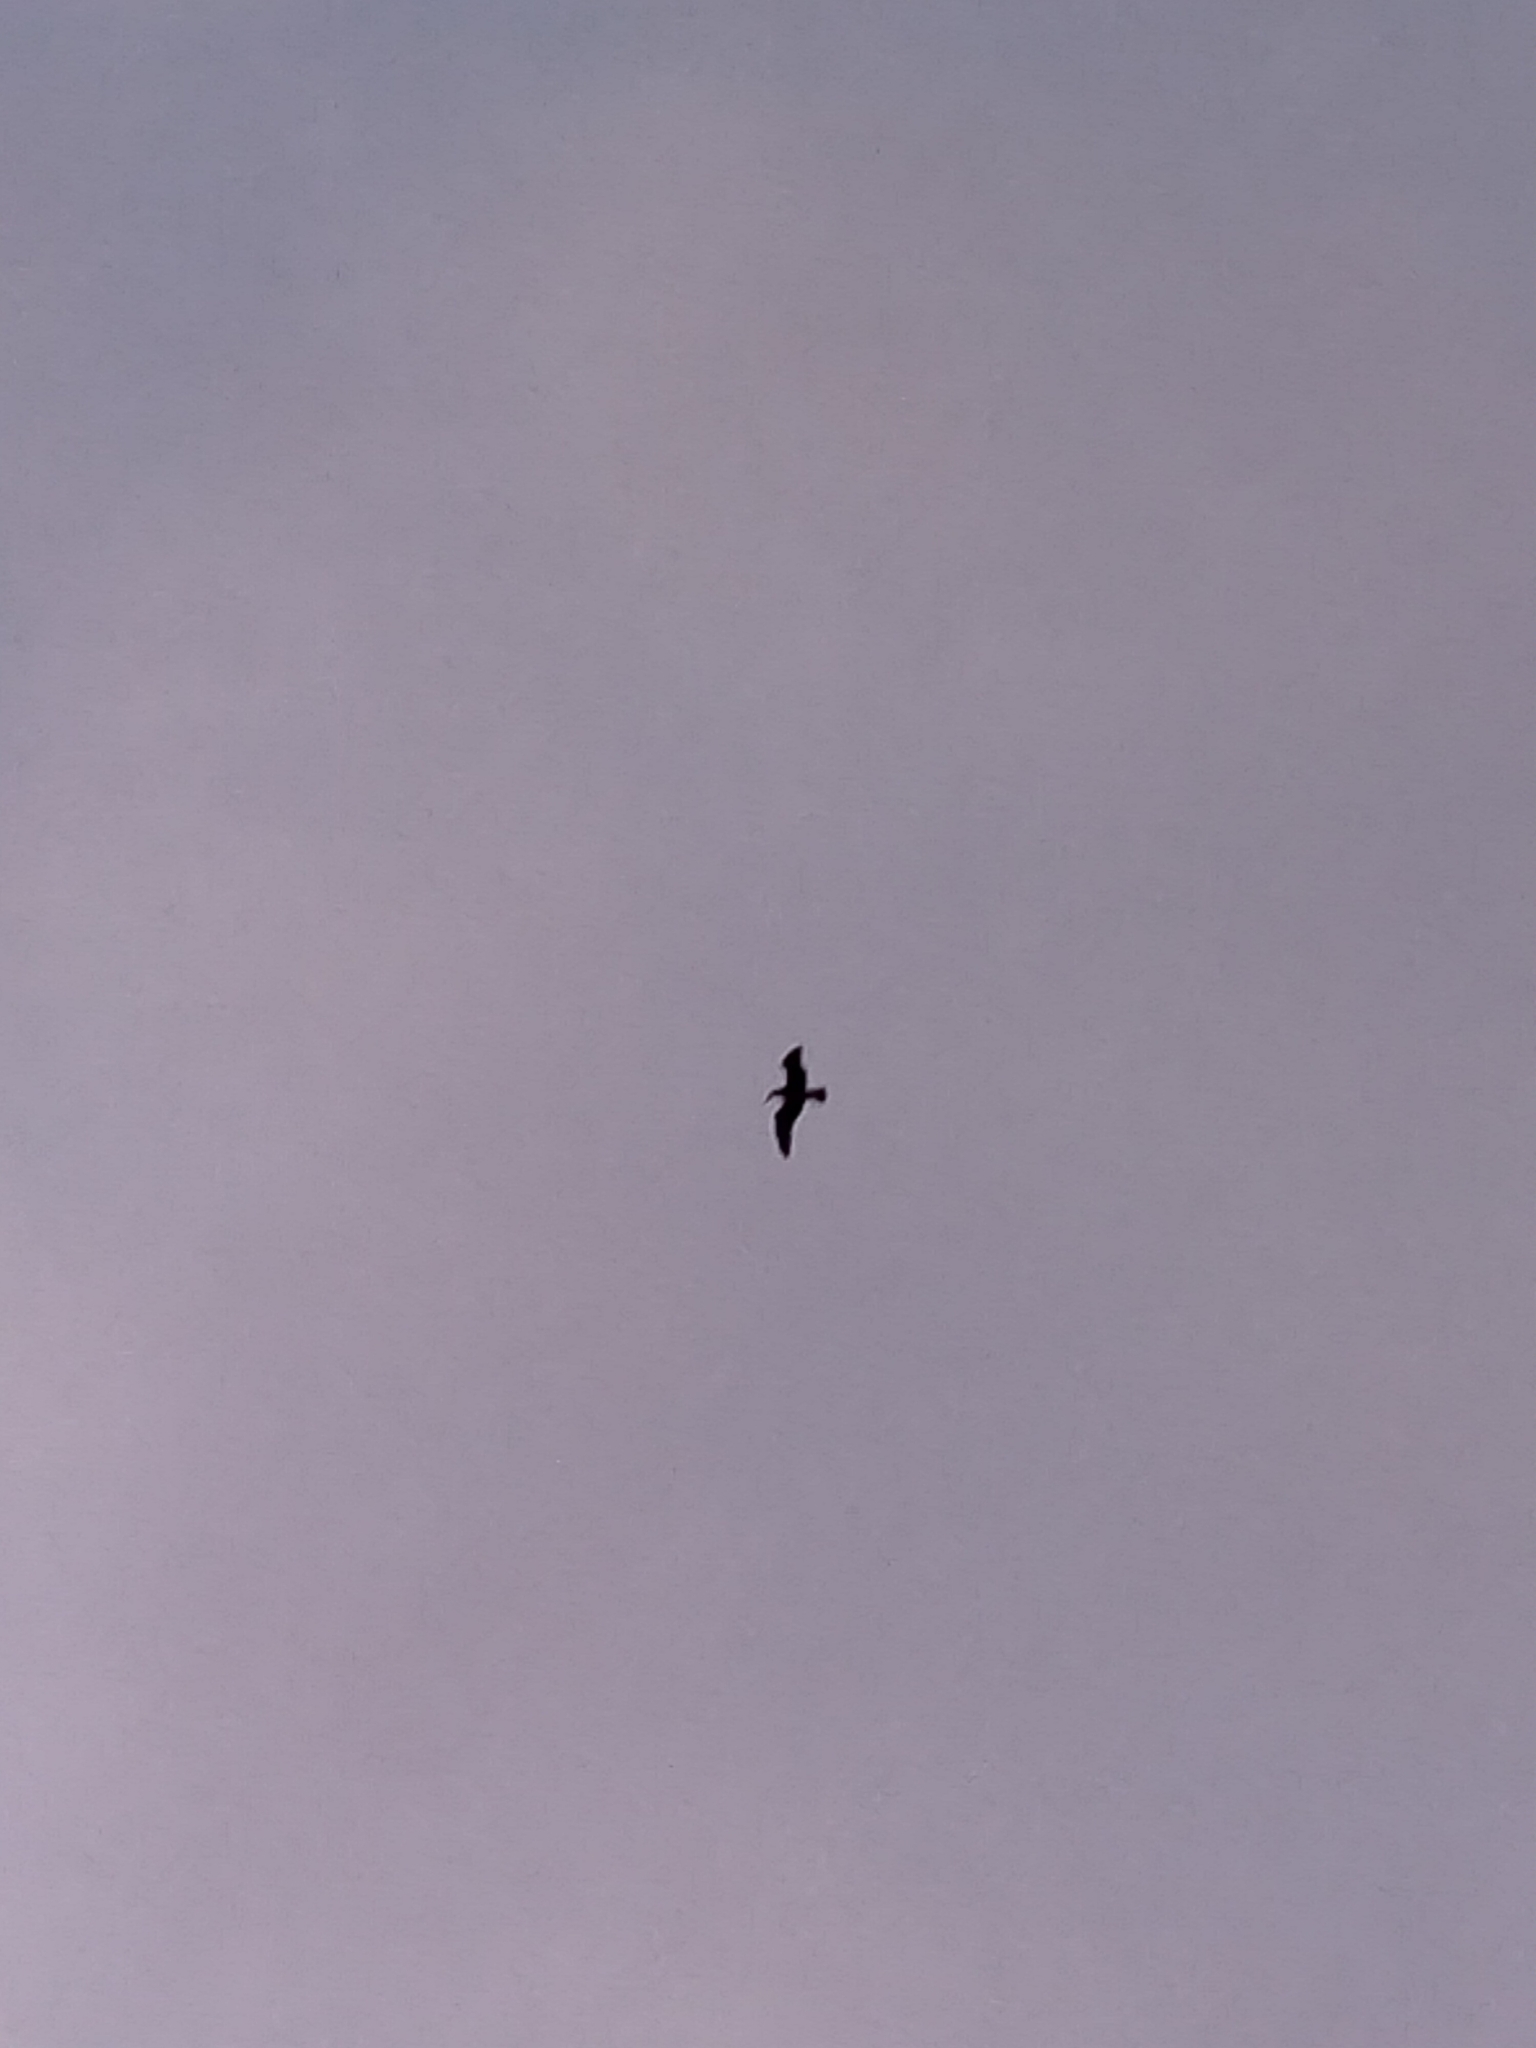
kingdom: Animalia
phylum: Chordata
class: Aves
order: Charadriiformes
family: Laridae
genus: Larus
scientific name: Larus dominicanus
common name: Kelp gull
